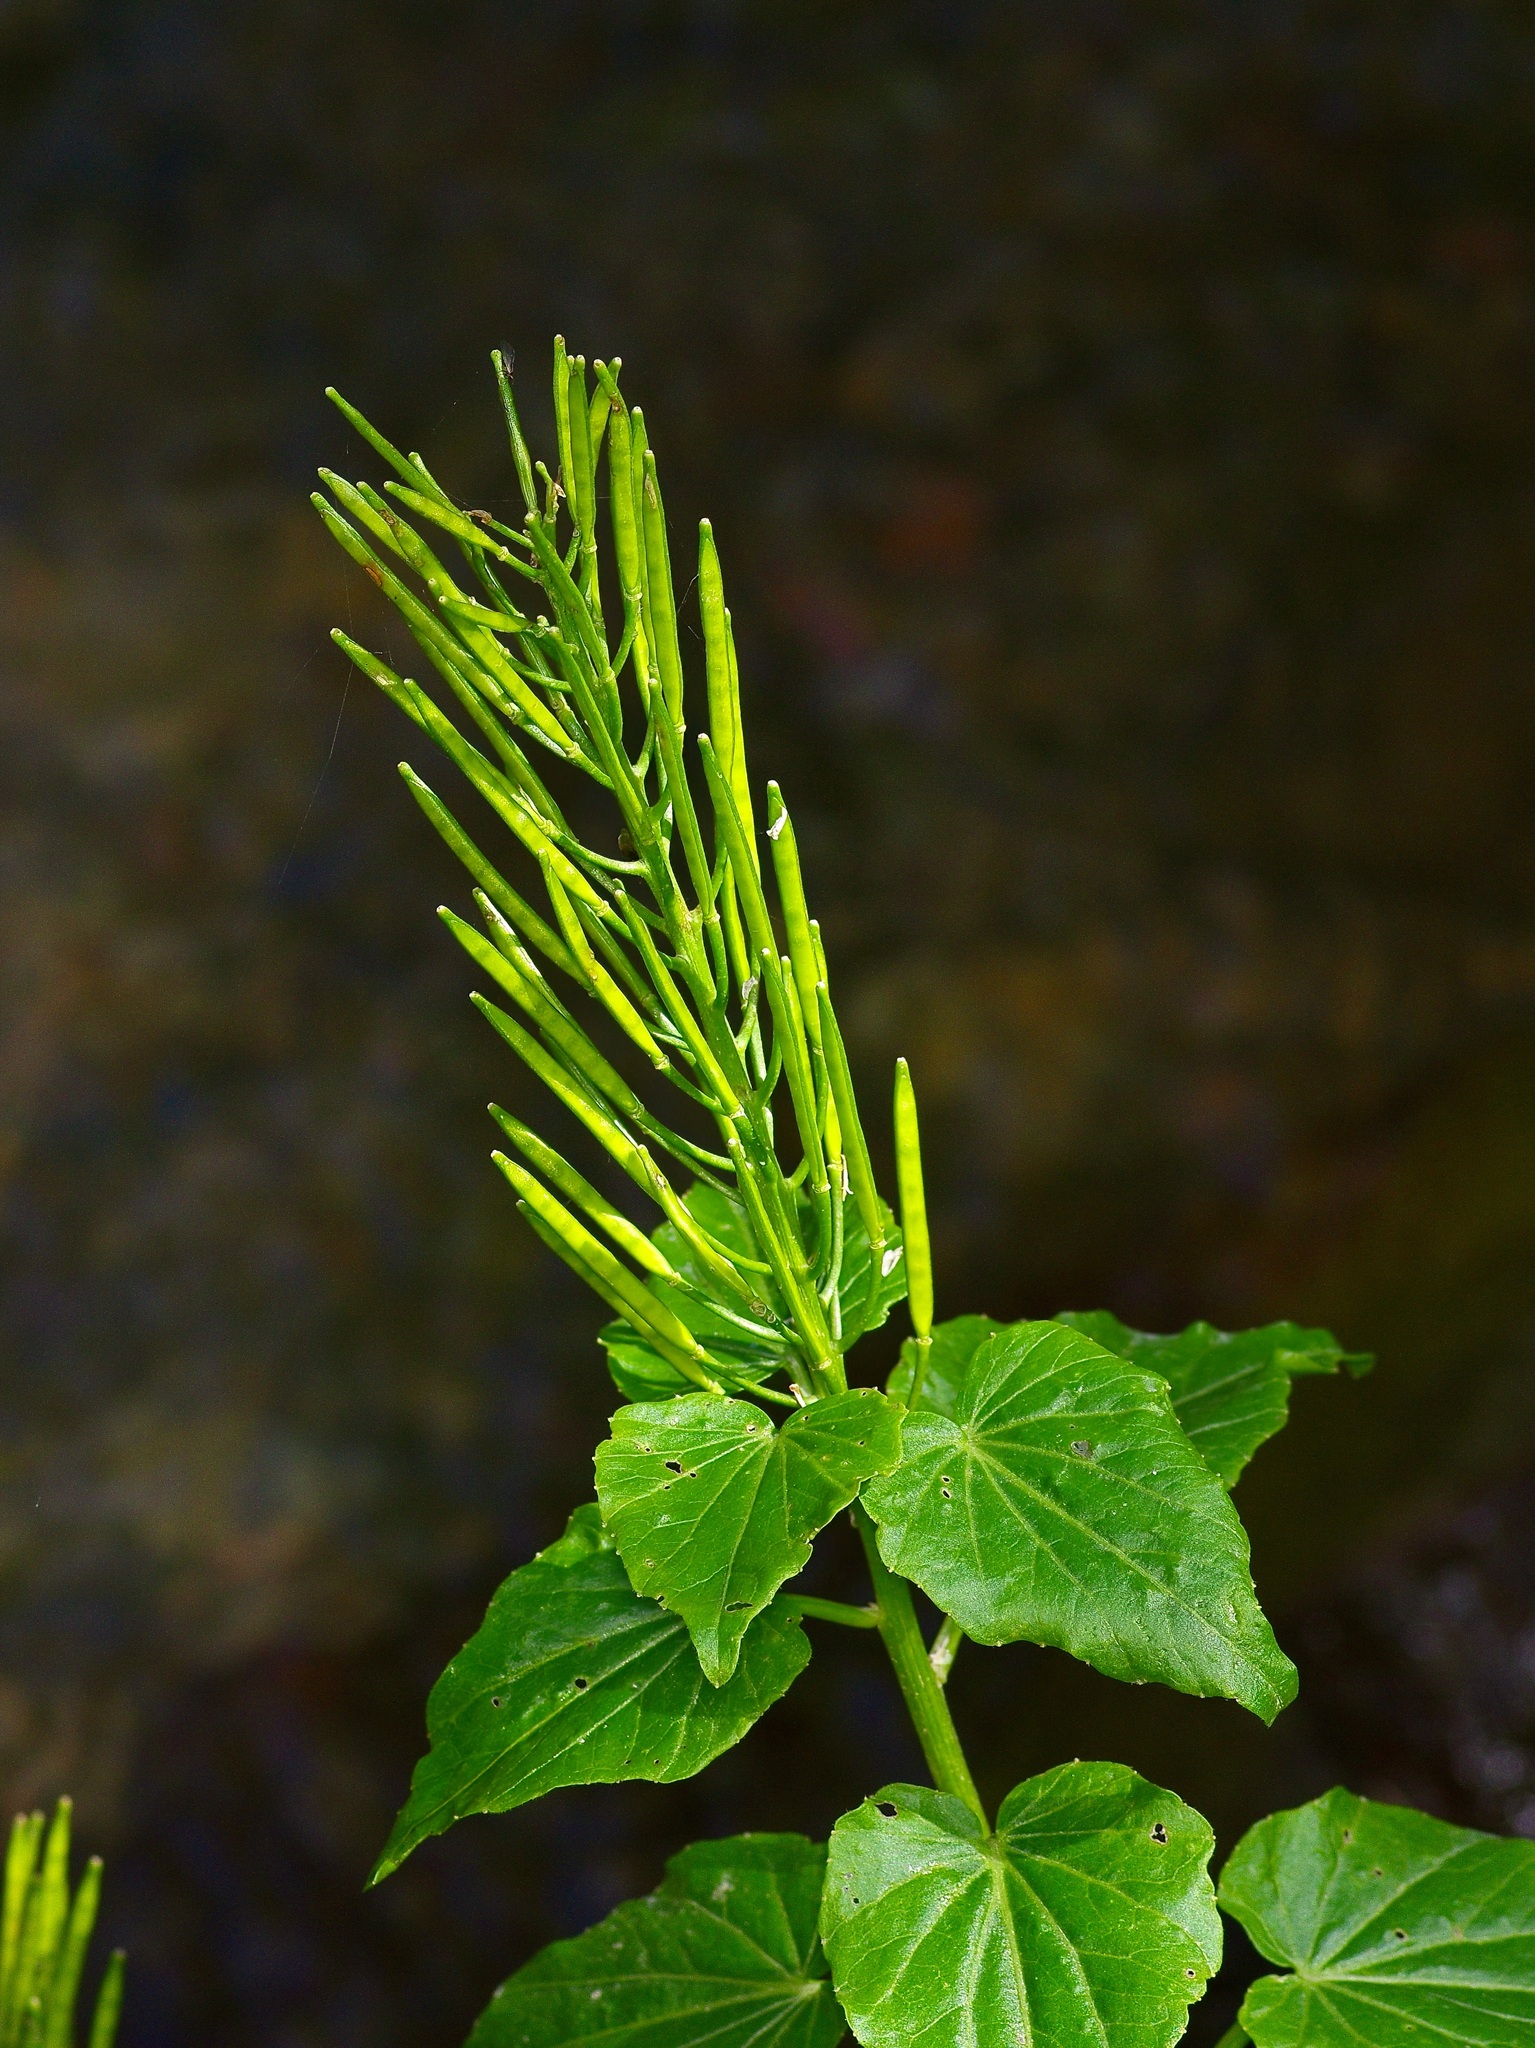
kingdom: Plantae
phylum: Tracheophyta
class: Magnoliopsida
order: Brassicales
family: Brassicaceae
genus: Cardamine
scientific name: Cardamine cordifolia
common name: Heart-leaf bittercress
